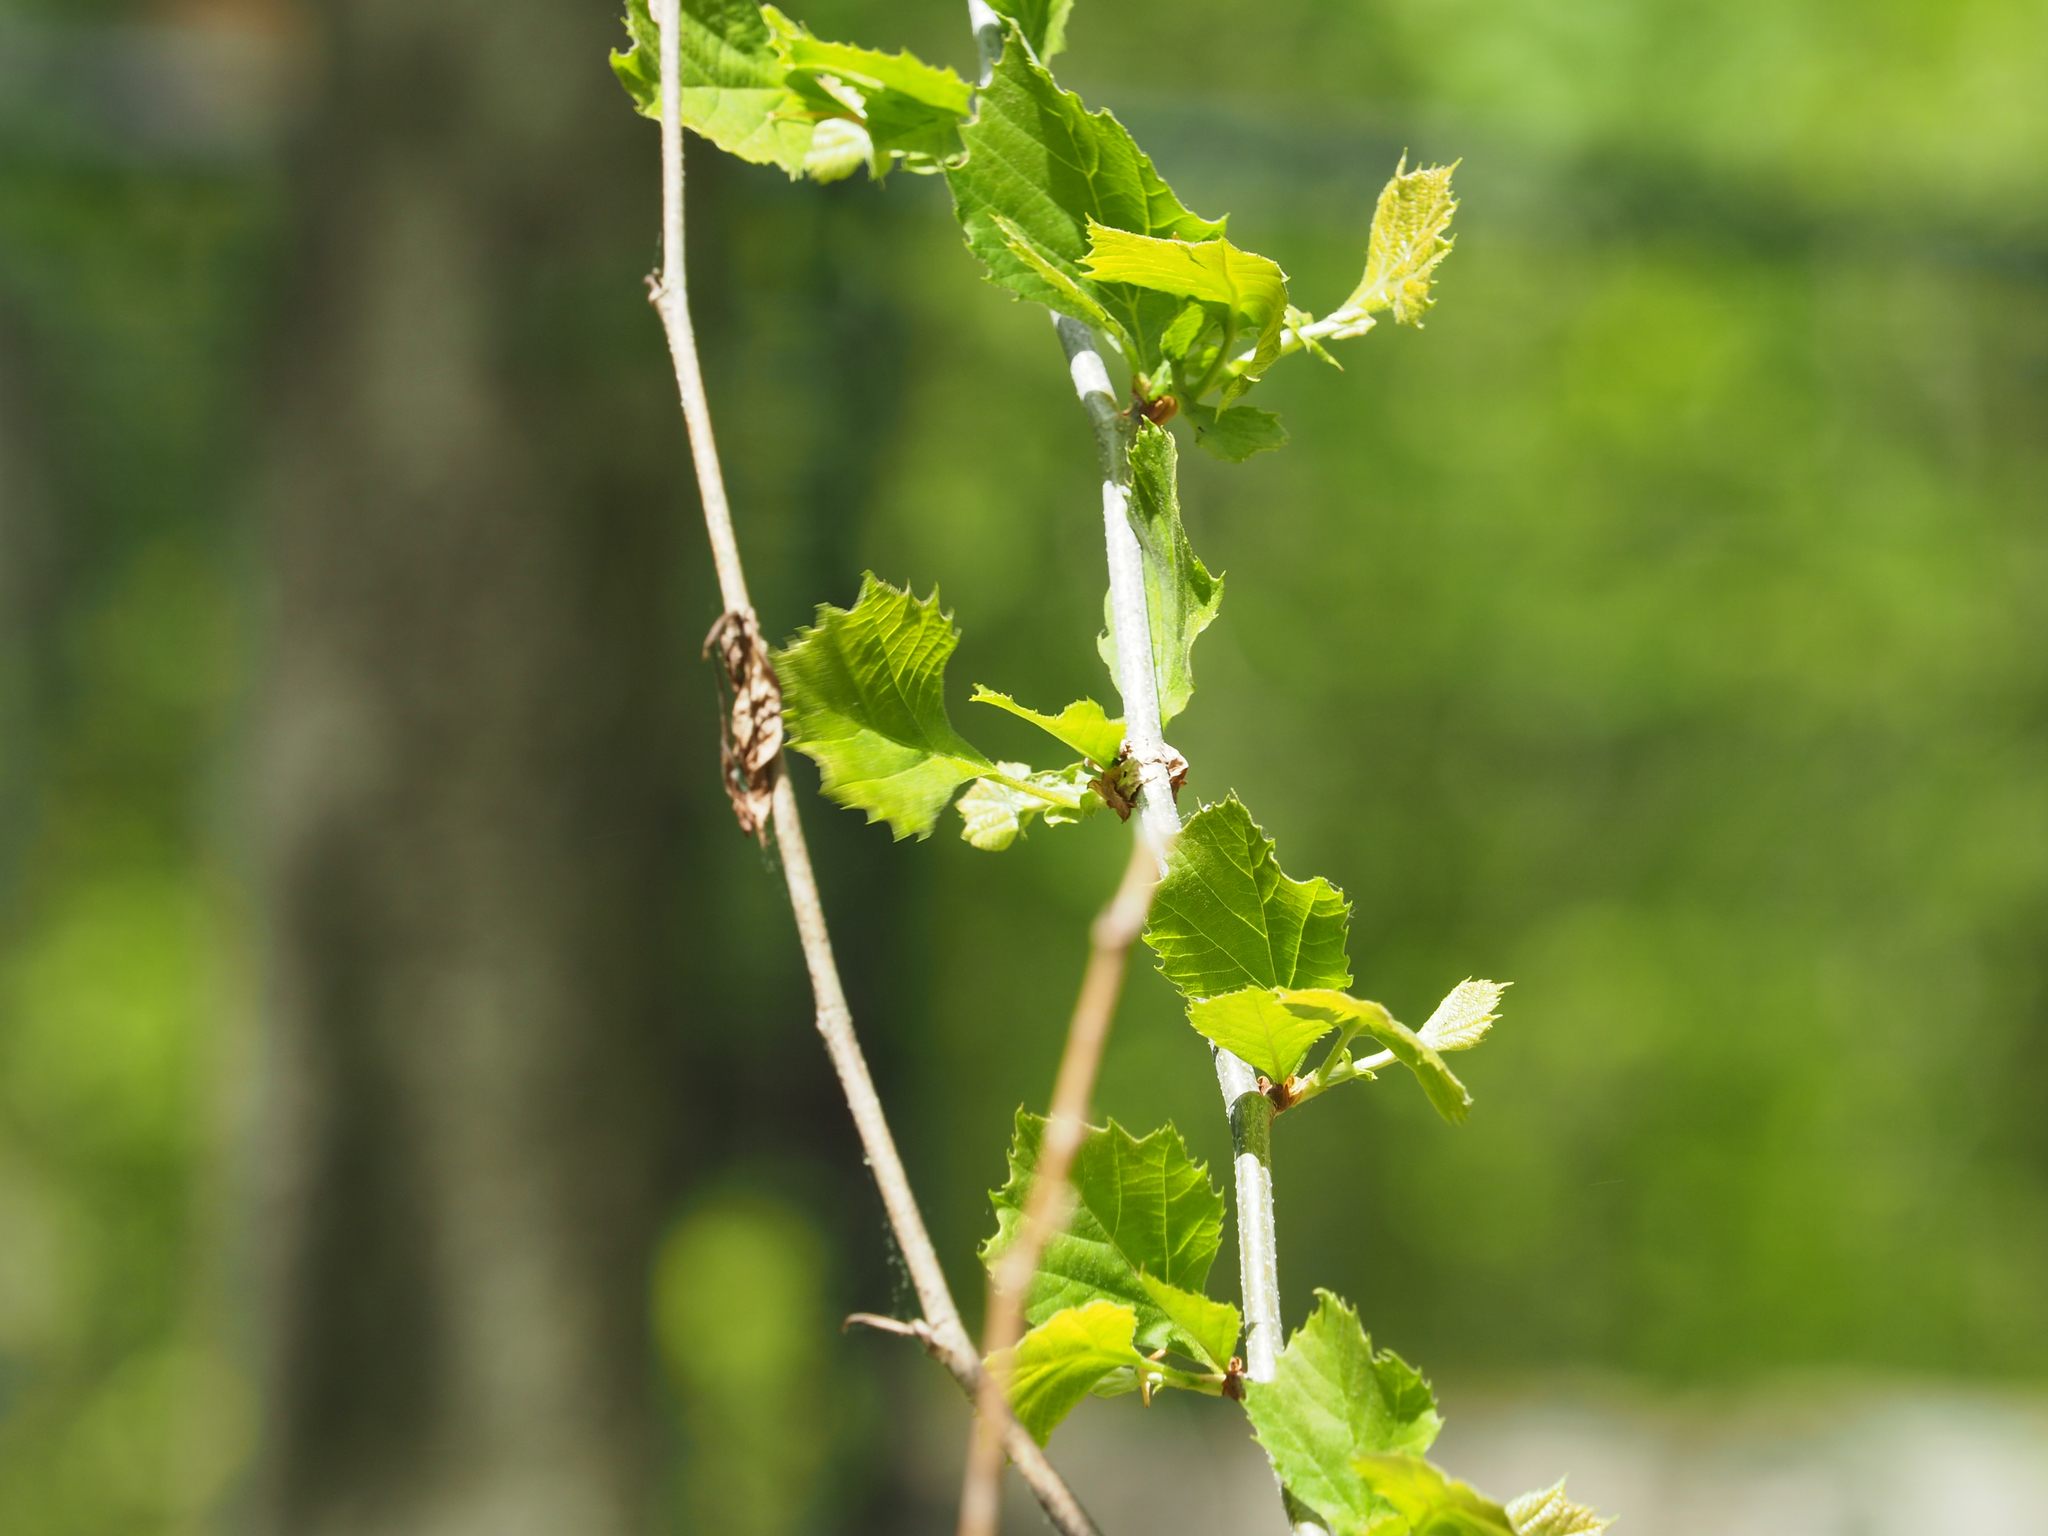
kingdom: Plantae
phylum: Tracheophyta
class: Magnoliopsida
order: Proteales
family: Platanaceae
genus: Platanus
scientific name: Platanus occidentalis
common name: American sycamore
